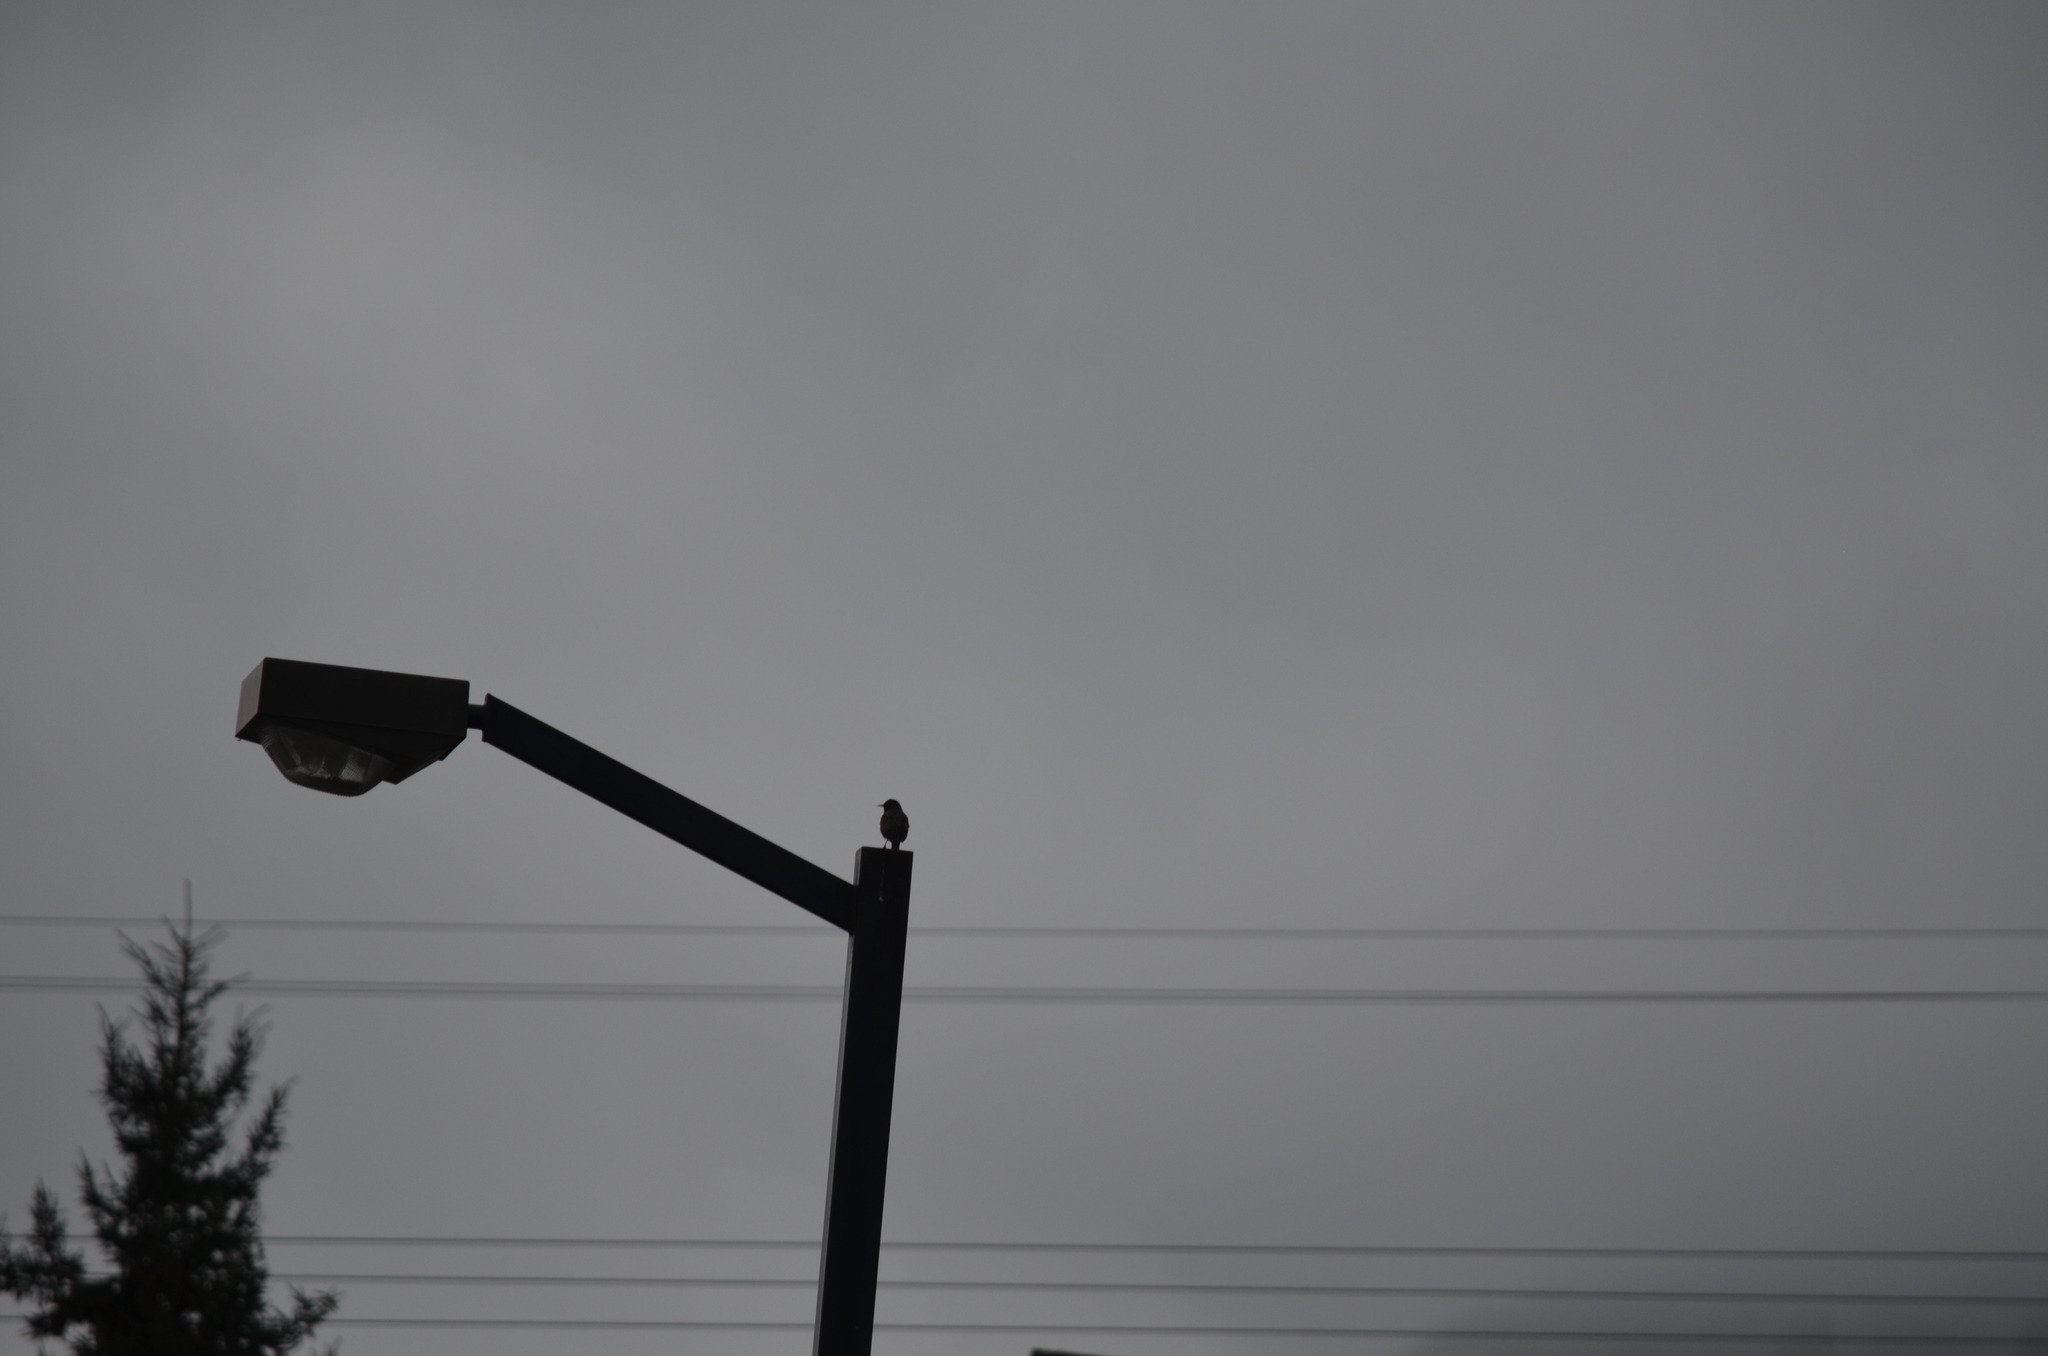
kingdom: Animalia
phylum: Chordata
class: Aves
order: Passeriformes
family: Sturnidae
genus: Sturnus
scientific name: Sturnus vulgaris
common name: Common starling
